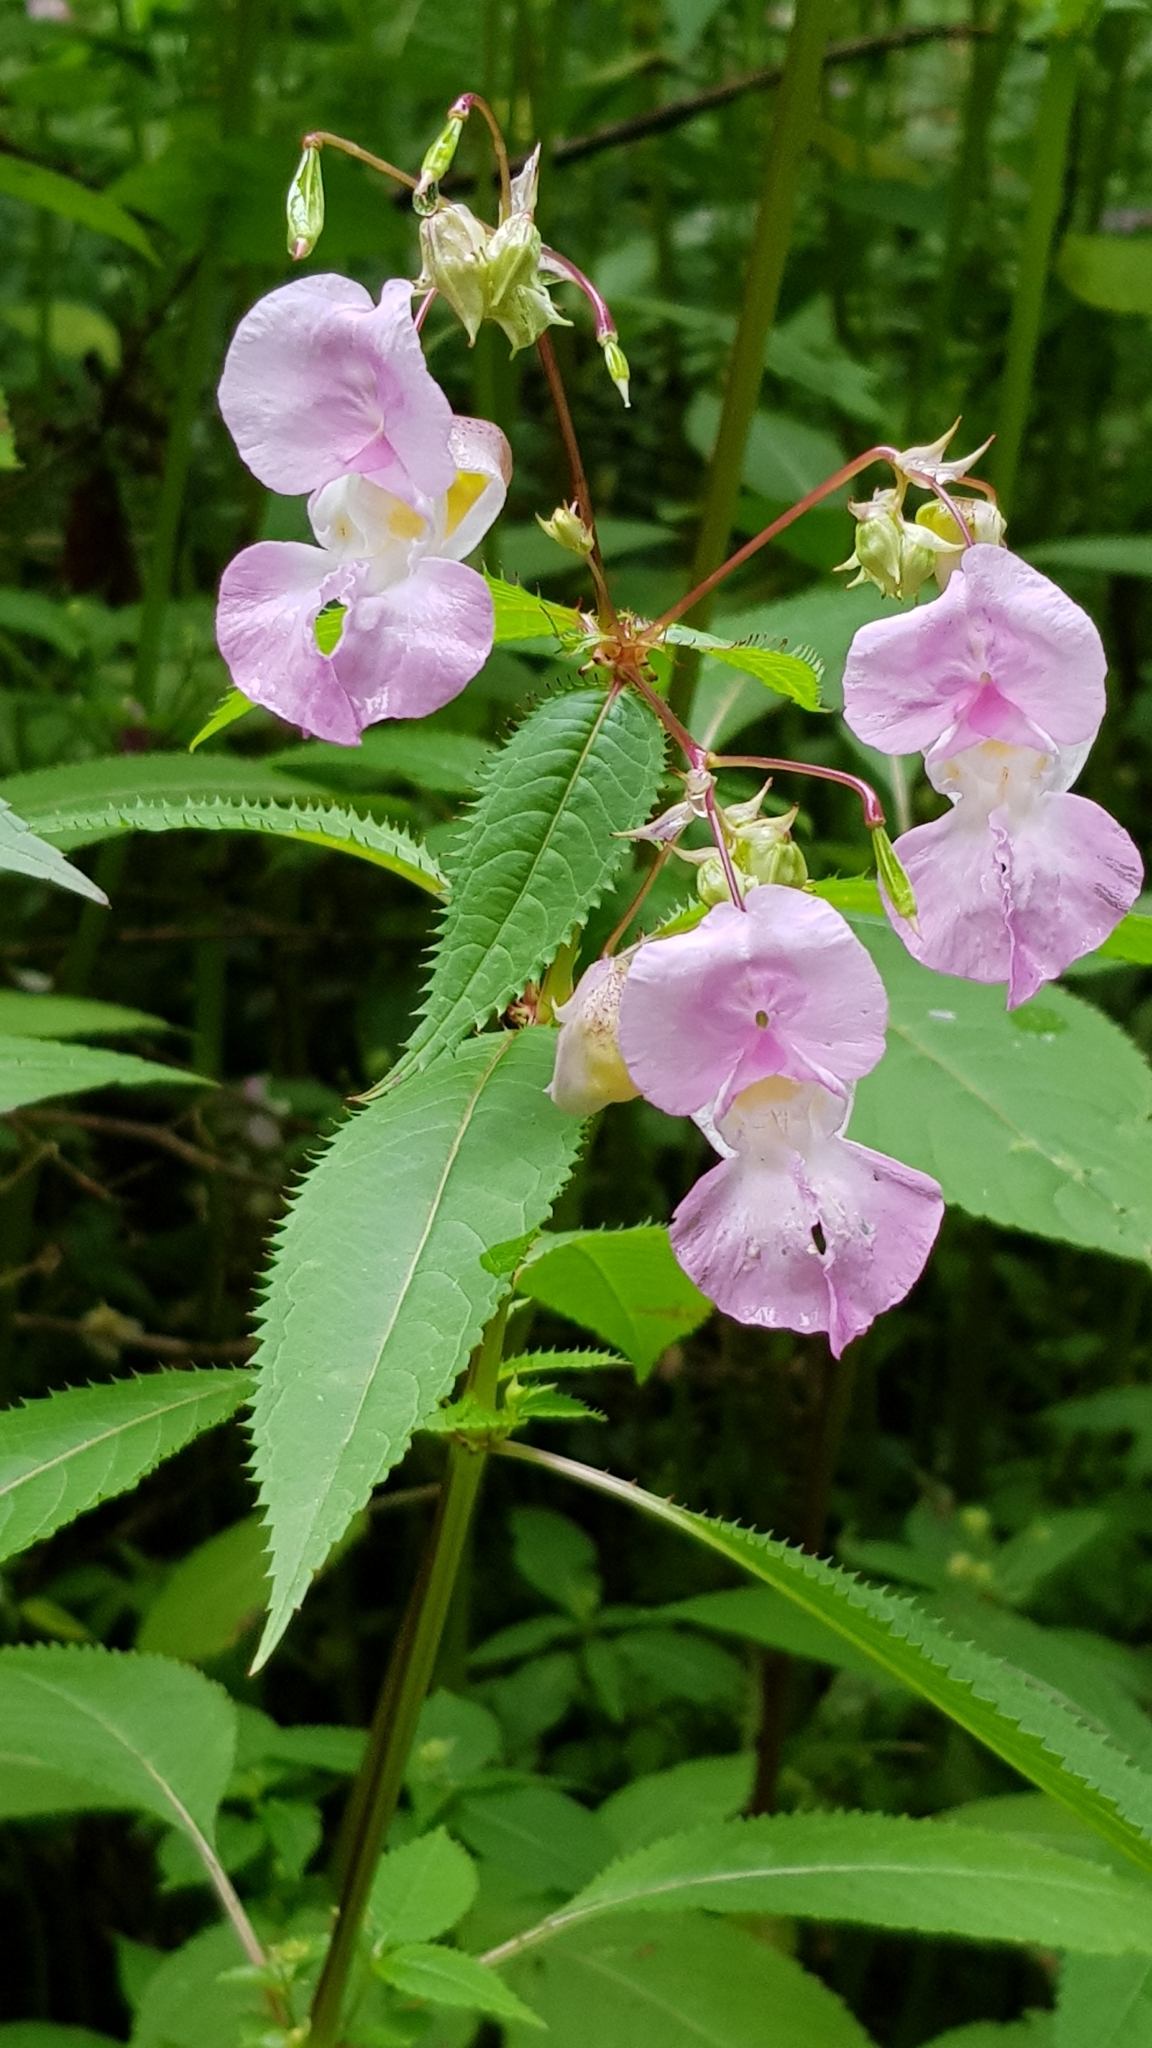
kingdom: Plantae
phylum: Tracheophyta
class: Magnoliopsida
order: Ericales
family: Balsaminaceae
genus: Impatiens
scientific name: Impatiens glandulifera
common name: Himalayan balsam
